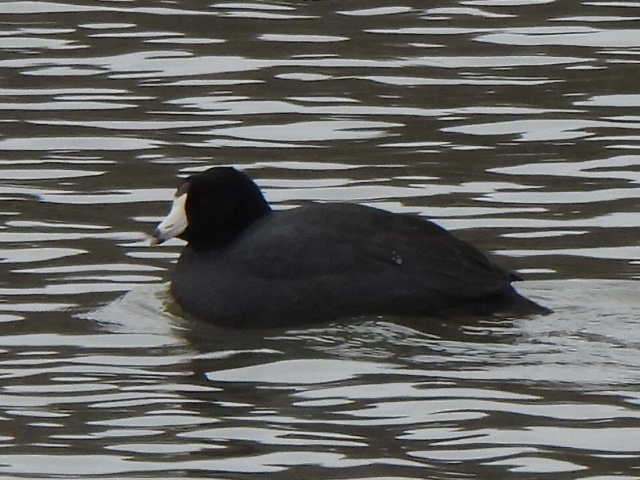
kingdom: Animalia
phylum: Chordata
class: Aves
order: Gruiformes
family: Rallidae
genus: Fulica
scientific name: Fulica americana
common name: American coot
